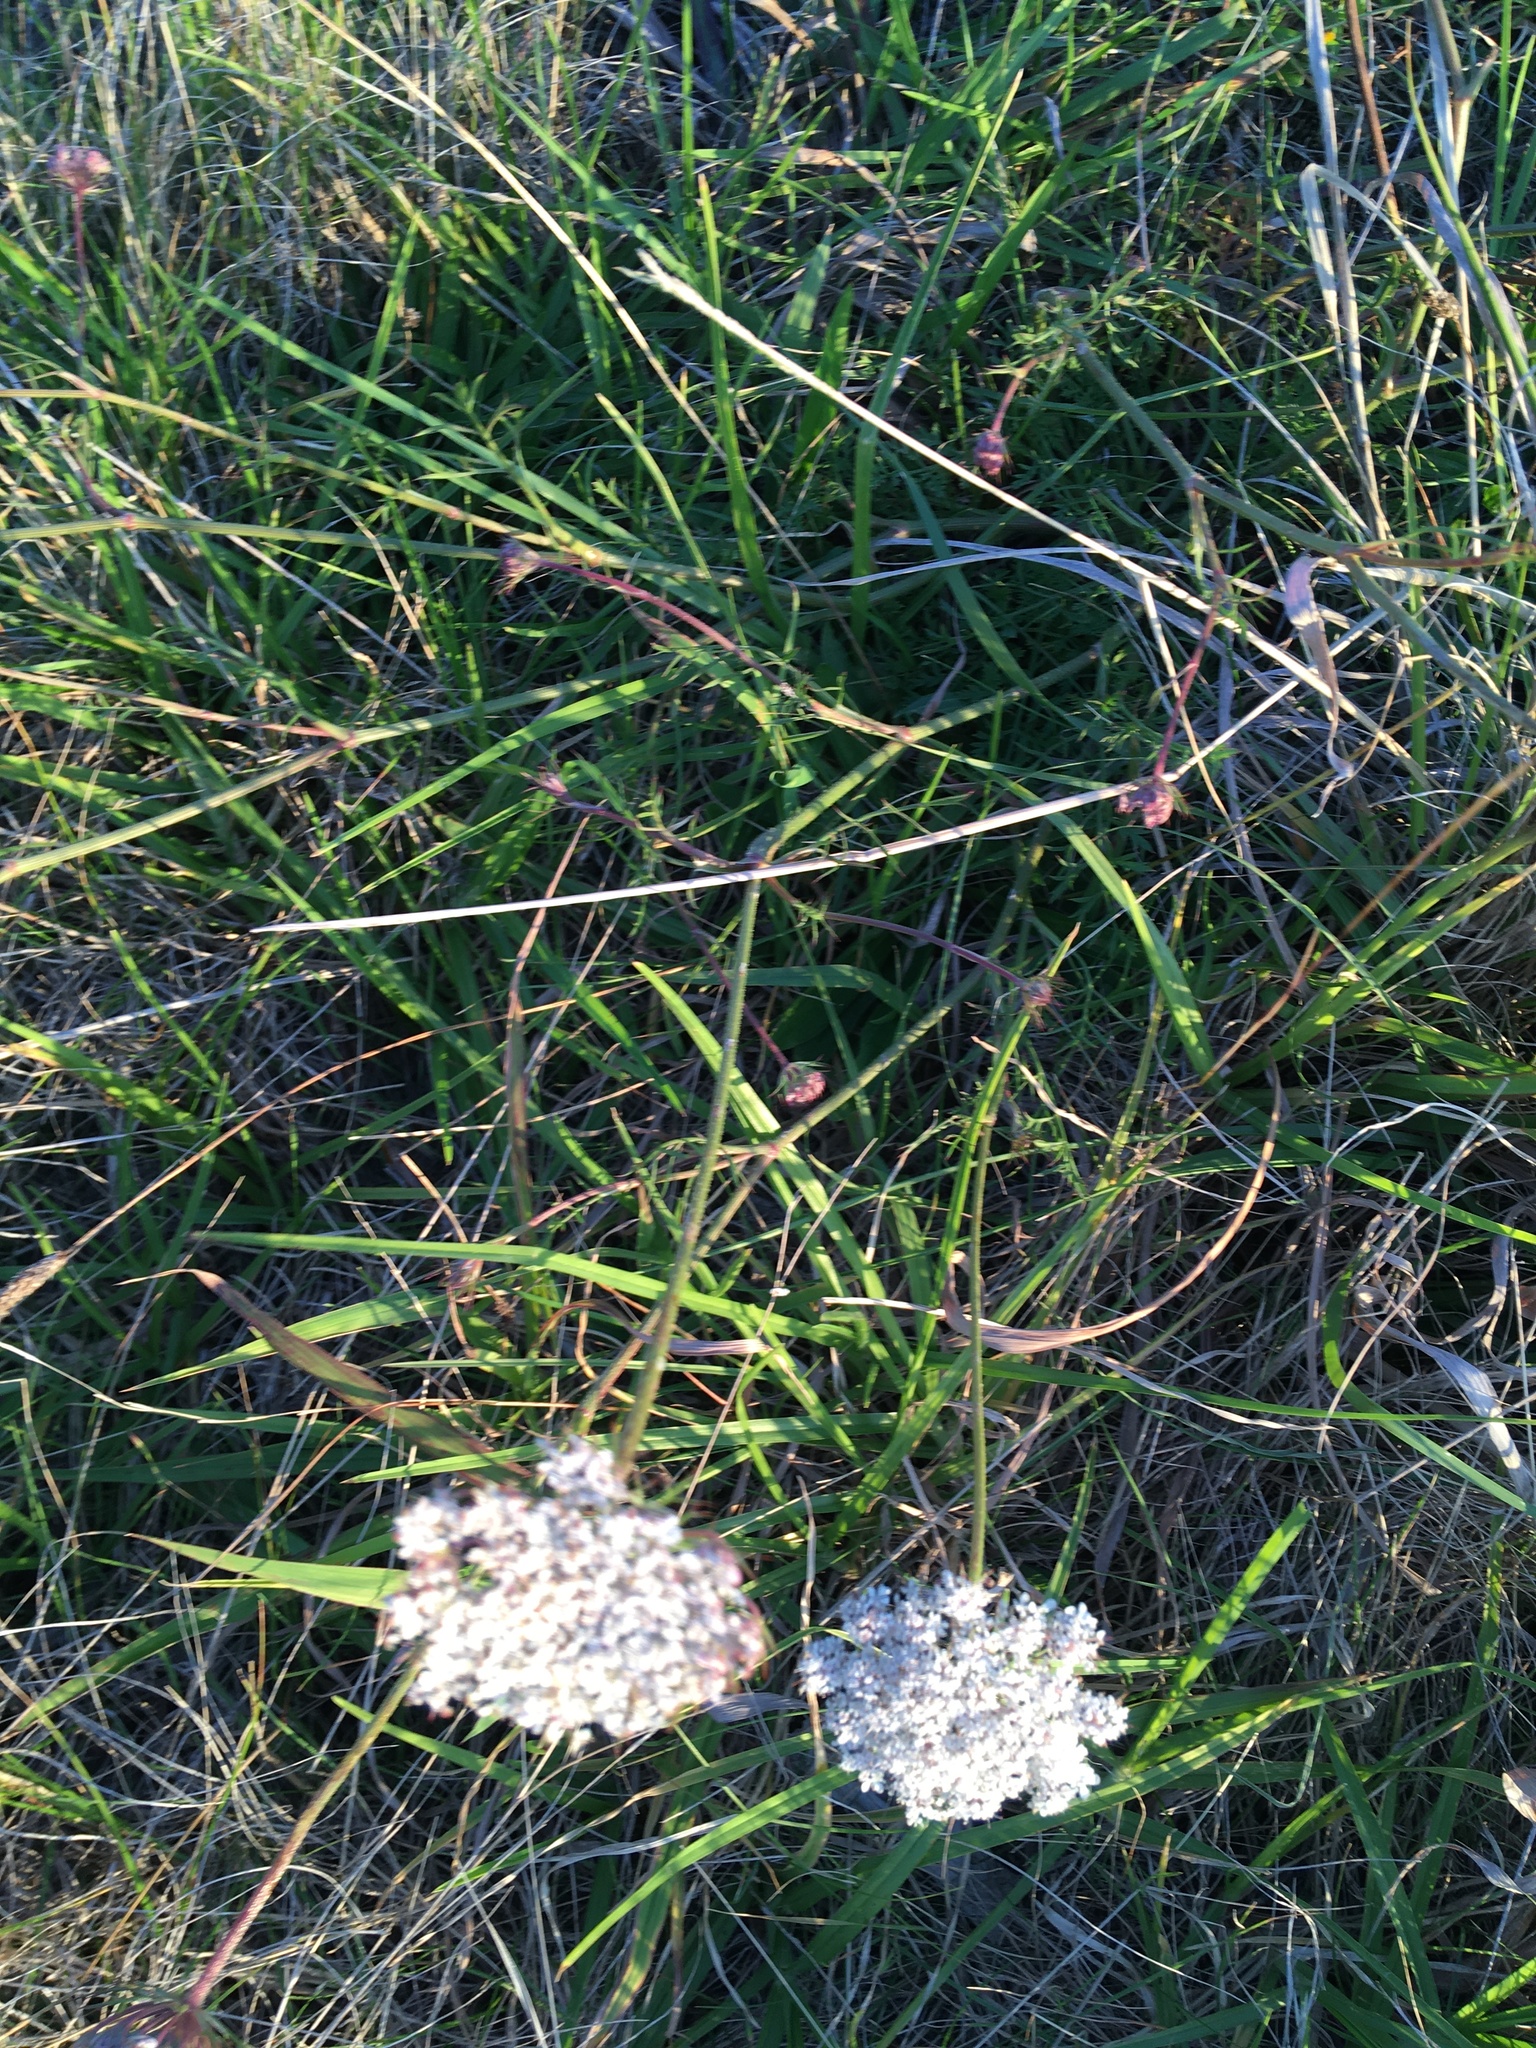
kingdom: Plantae
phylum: Tracheophyta
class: Magnoliopsida
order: Apiales
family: Apiaceae
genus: Daucus
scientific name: Daucus carota
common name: Wild carrot
